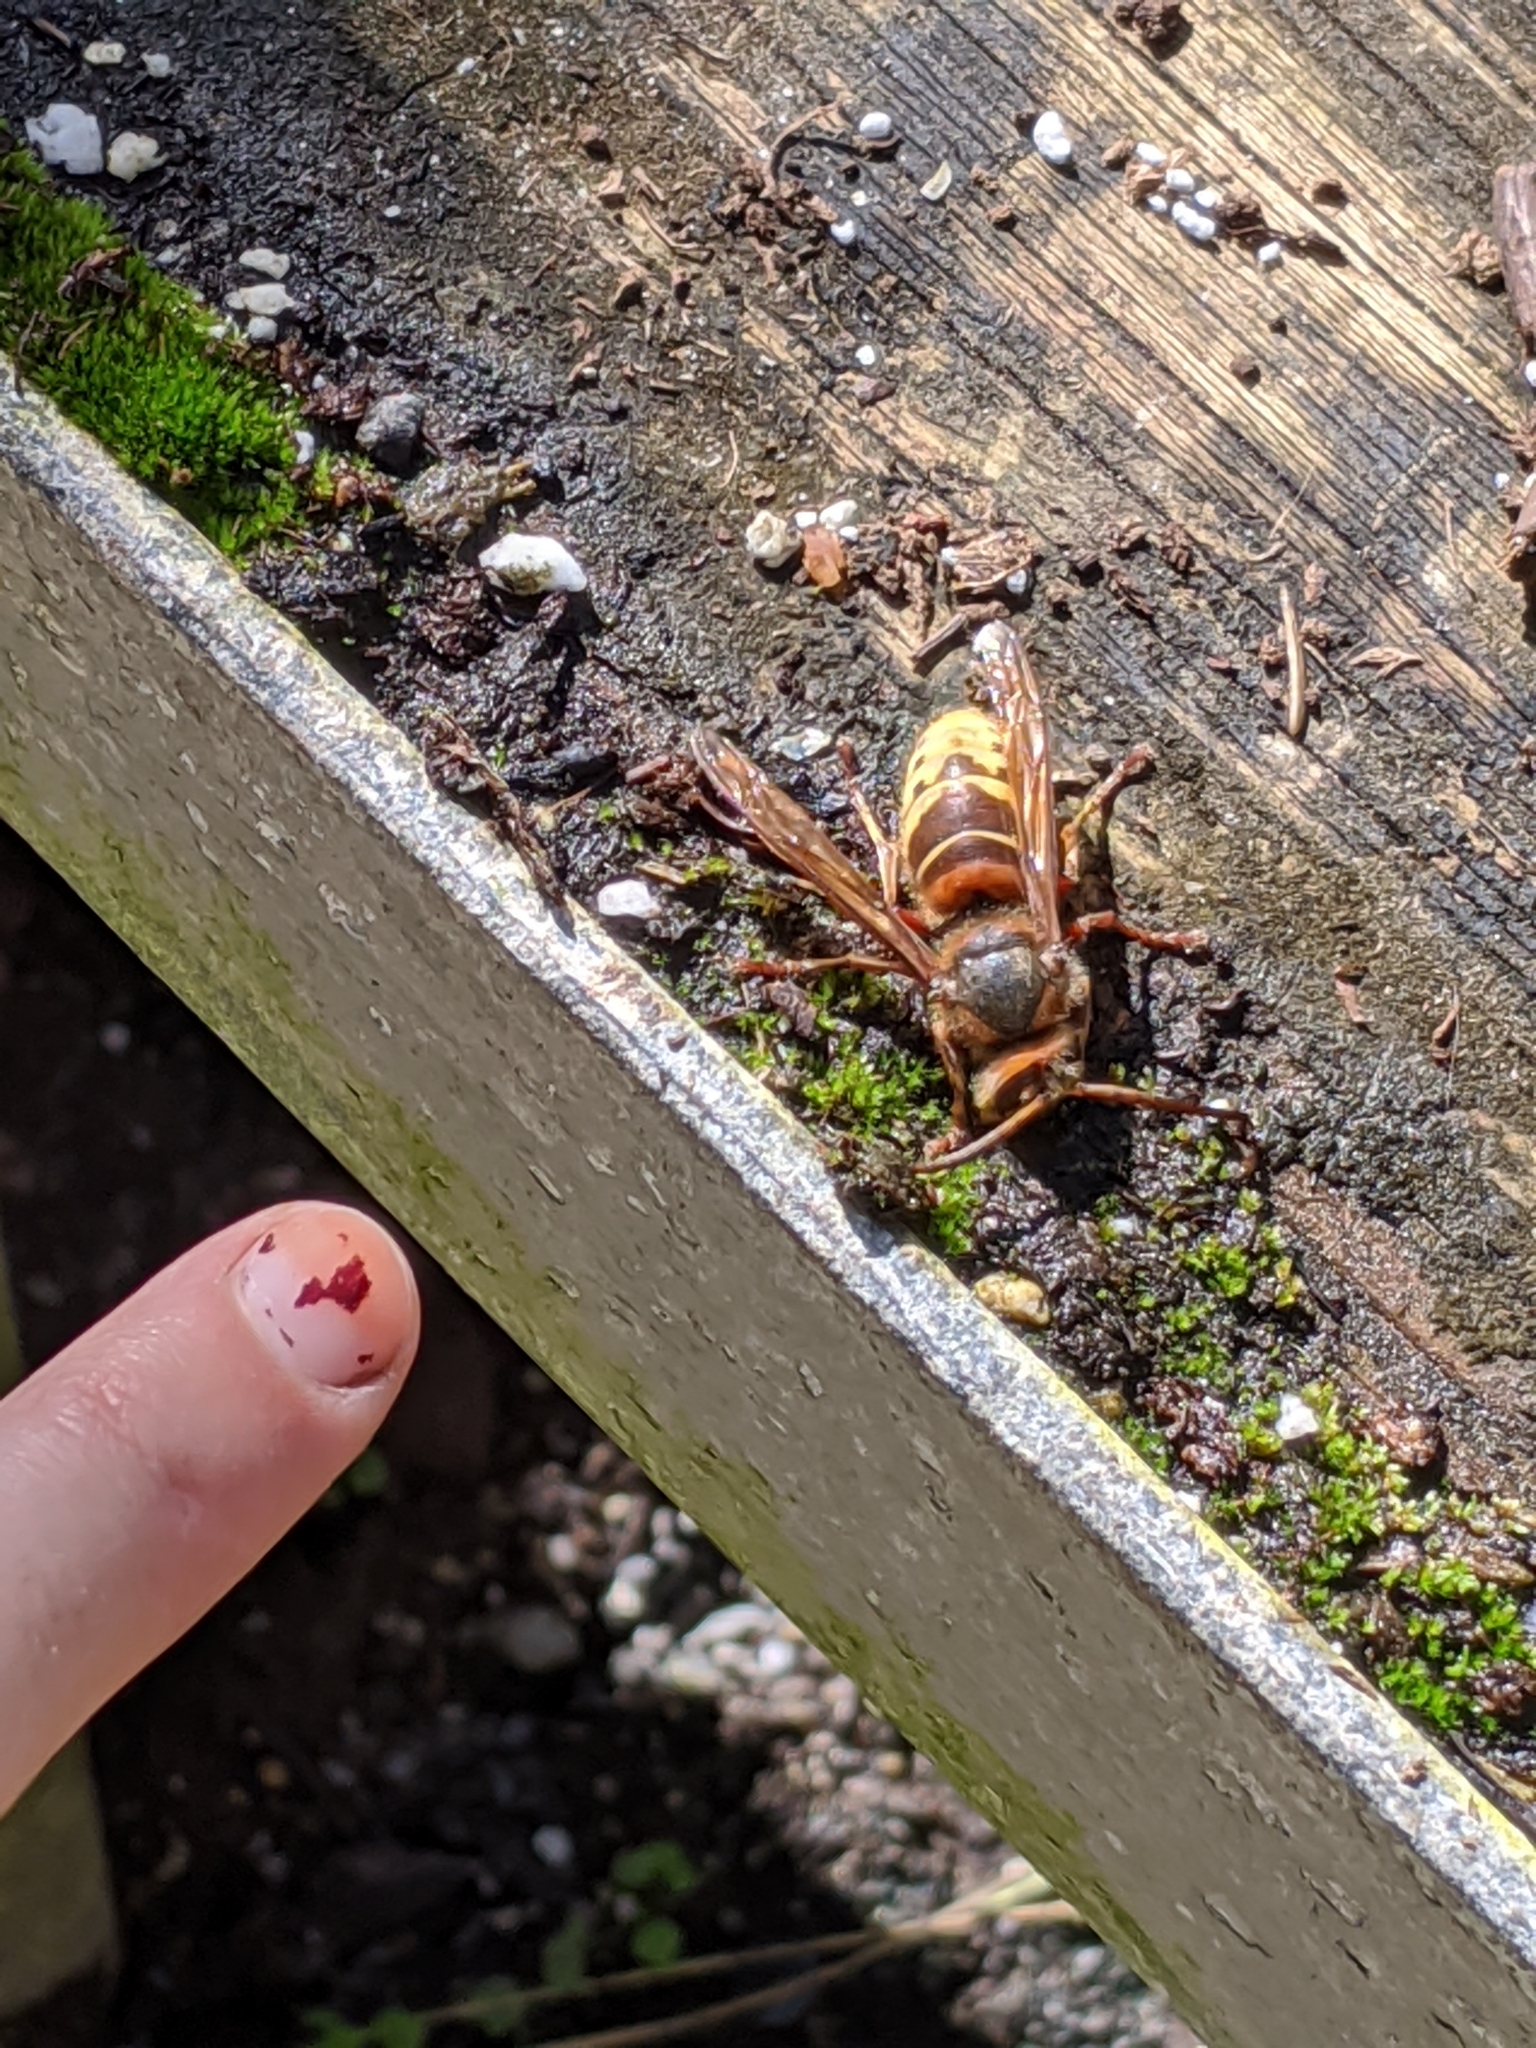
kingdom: Animalia
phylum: Arthropoda
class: Insecta
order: Hymenoptera
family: Vespidae
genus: Vespa
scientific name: Vespa crabro
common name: Hornet
